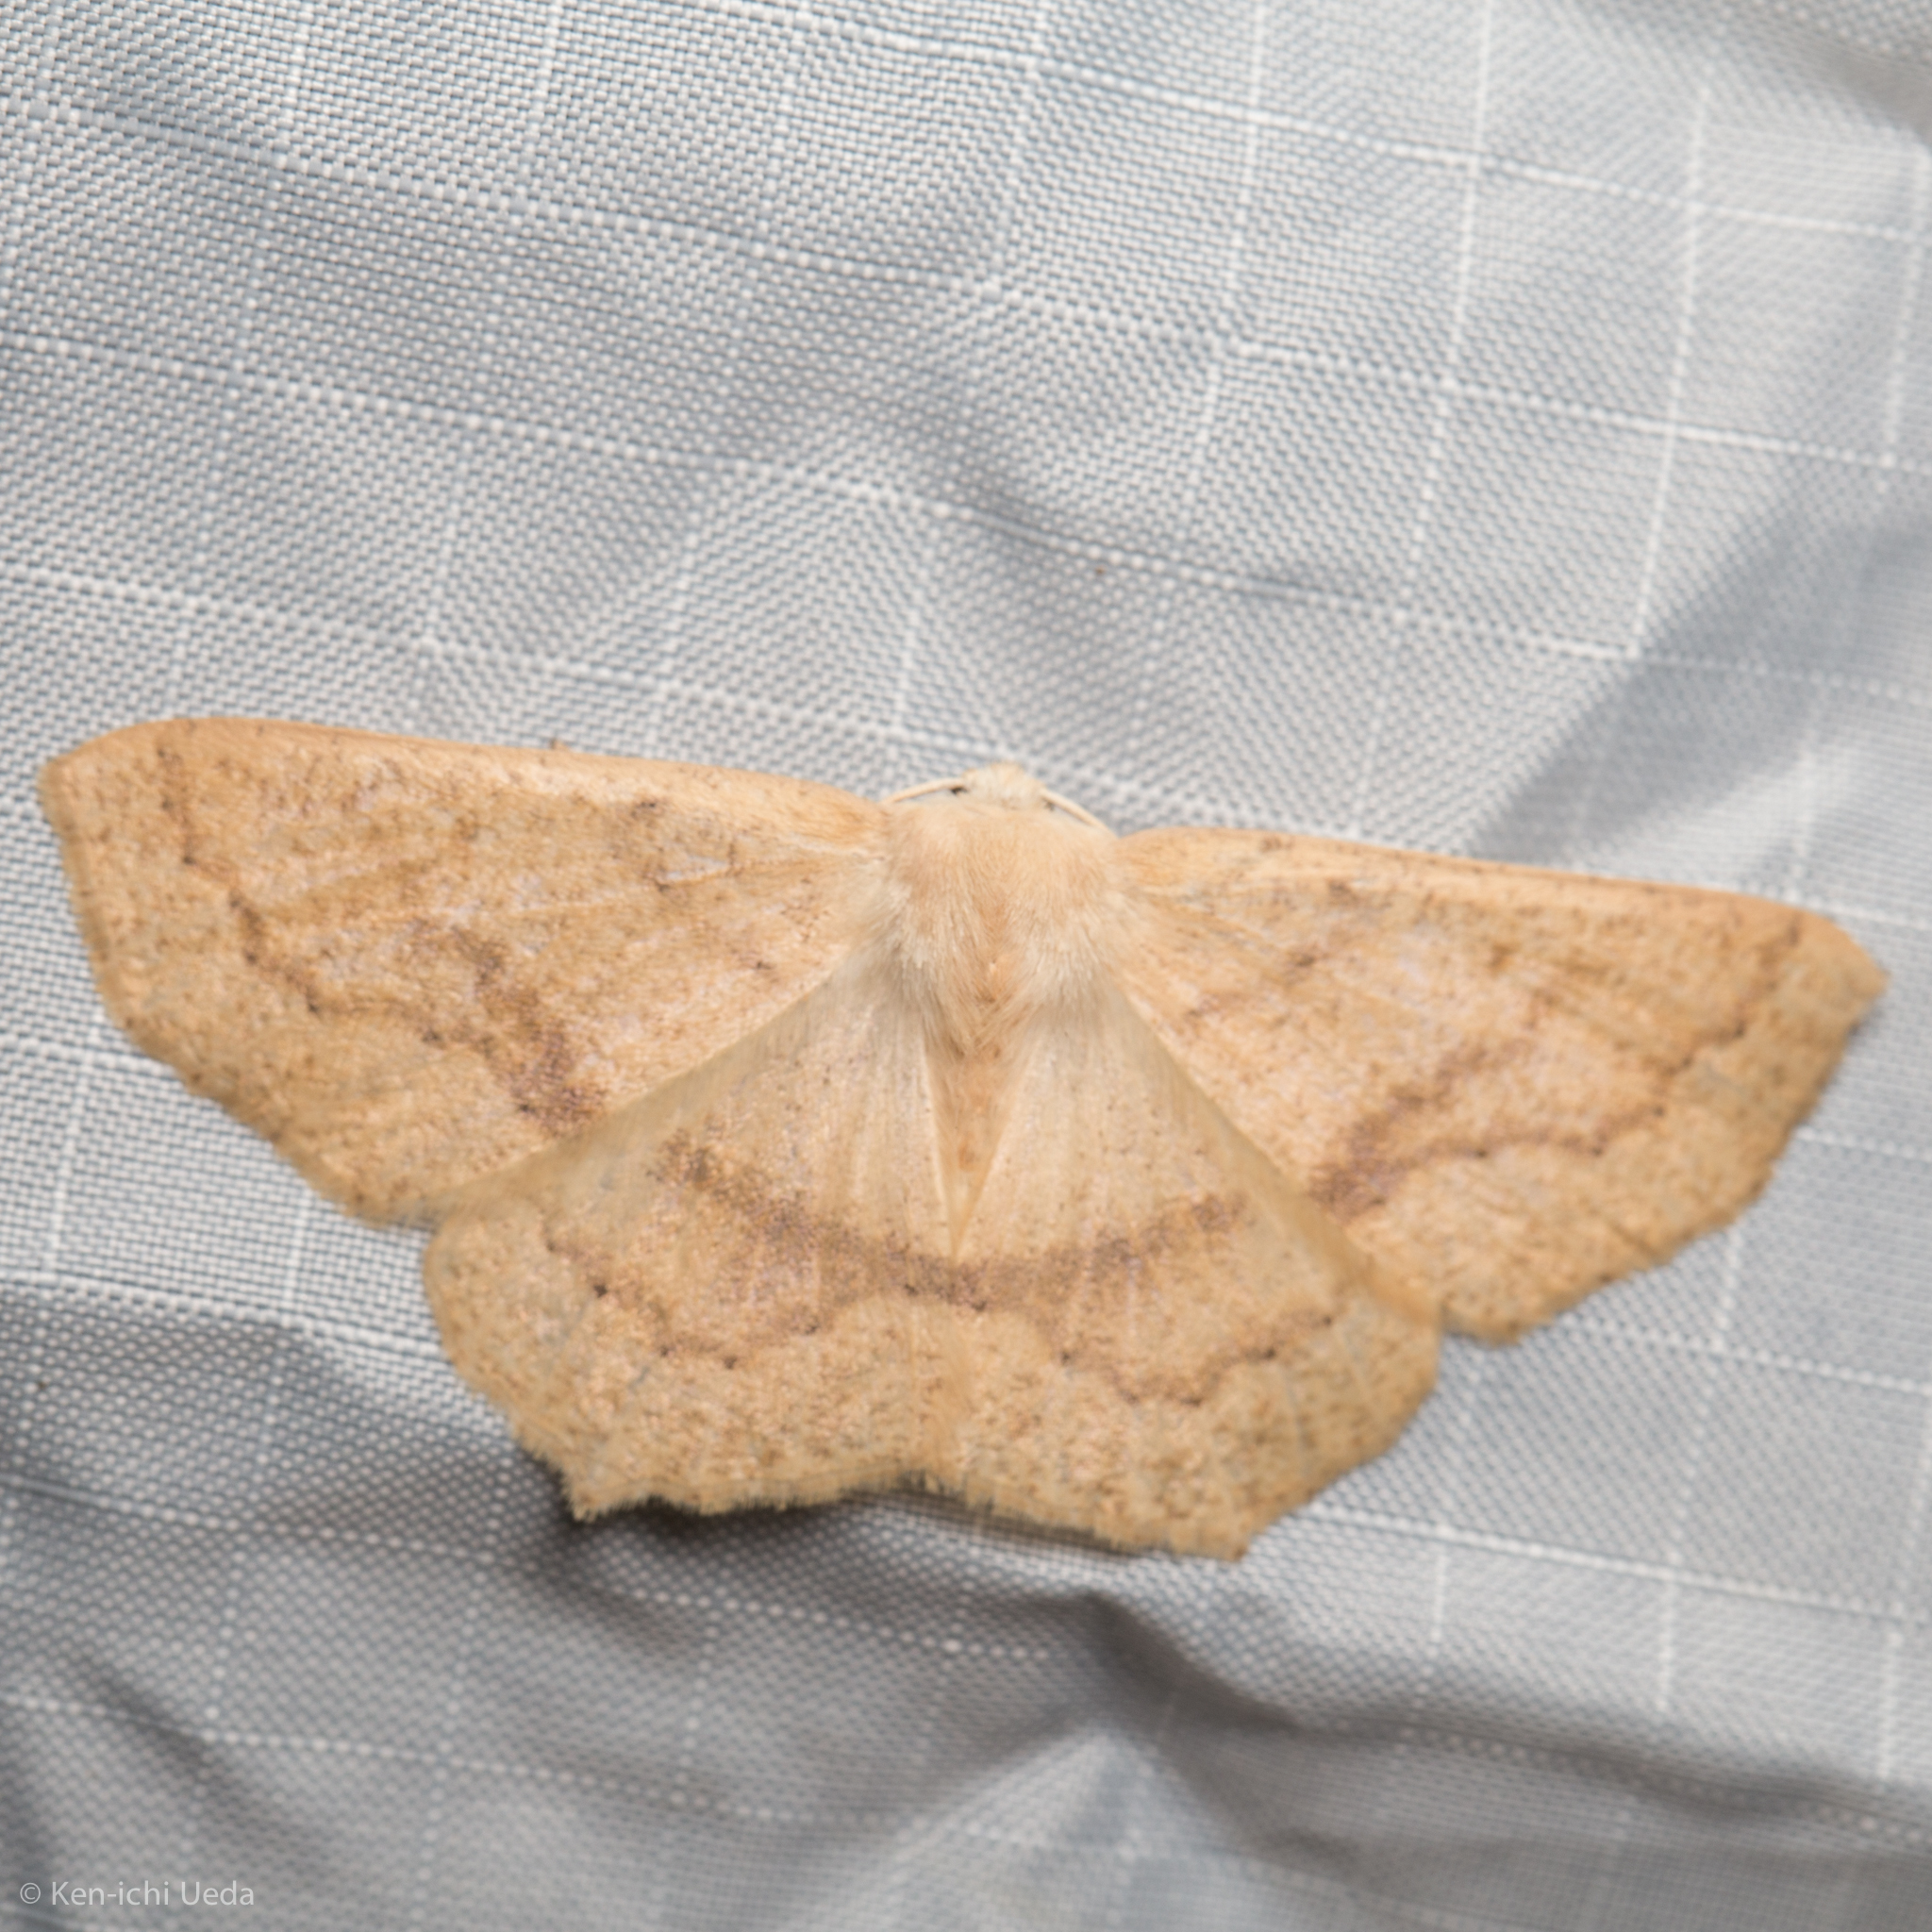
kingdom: Animalia
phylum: Arthropoda
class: Insecta
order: Lepidoptera
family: Geometridae
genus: Sabulodes
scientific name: Sabulodes aegrotata
